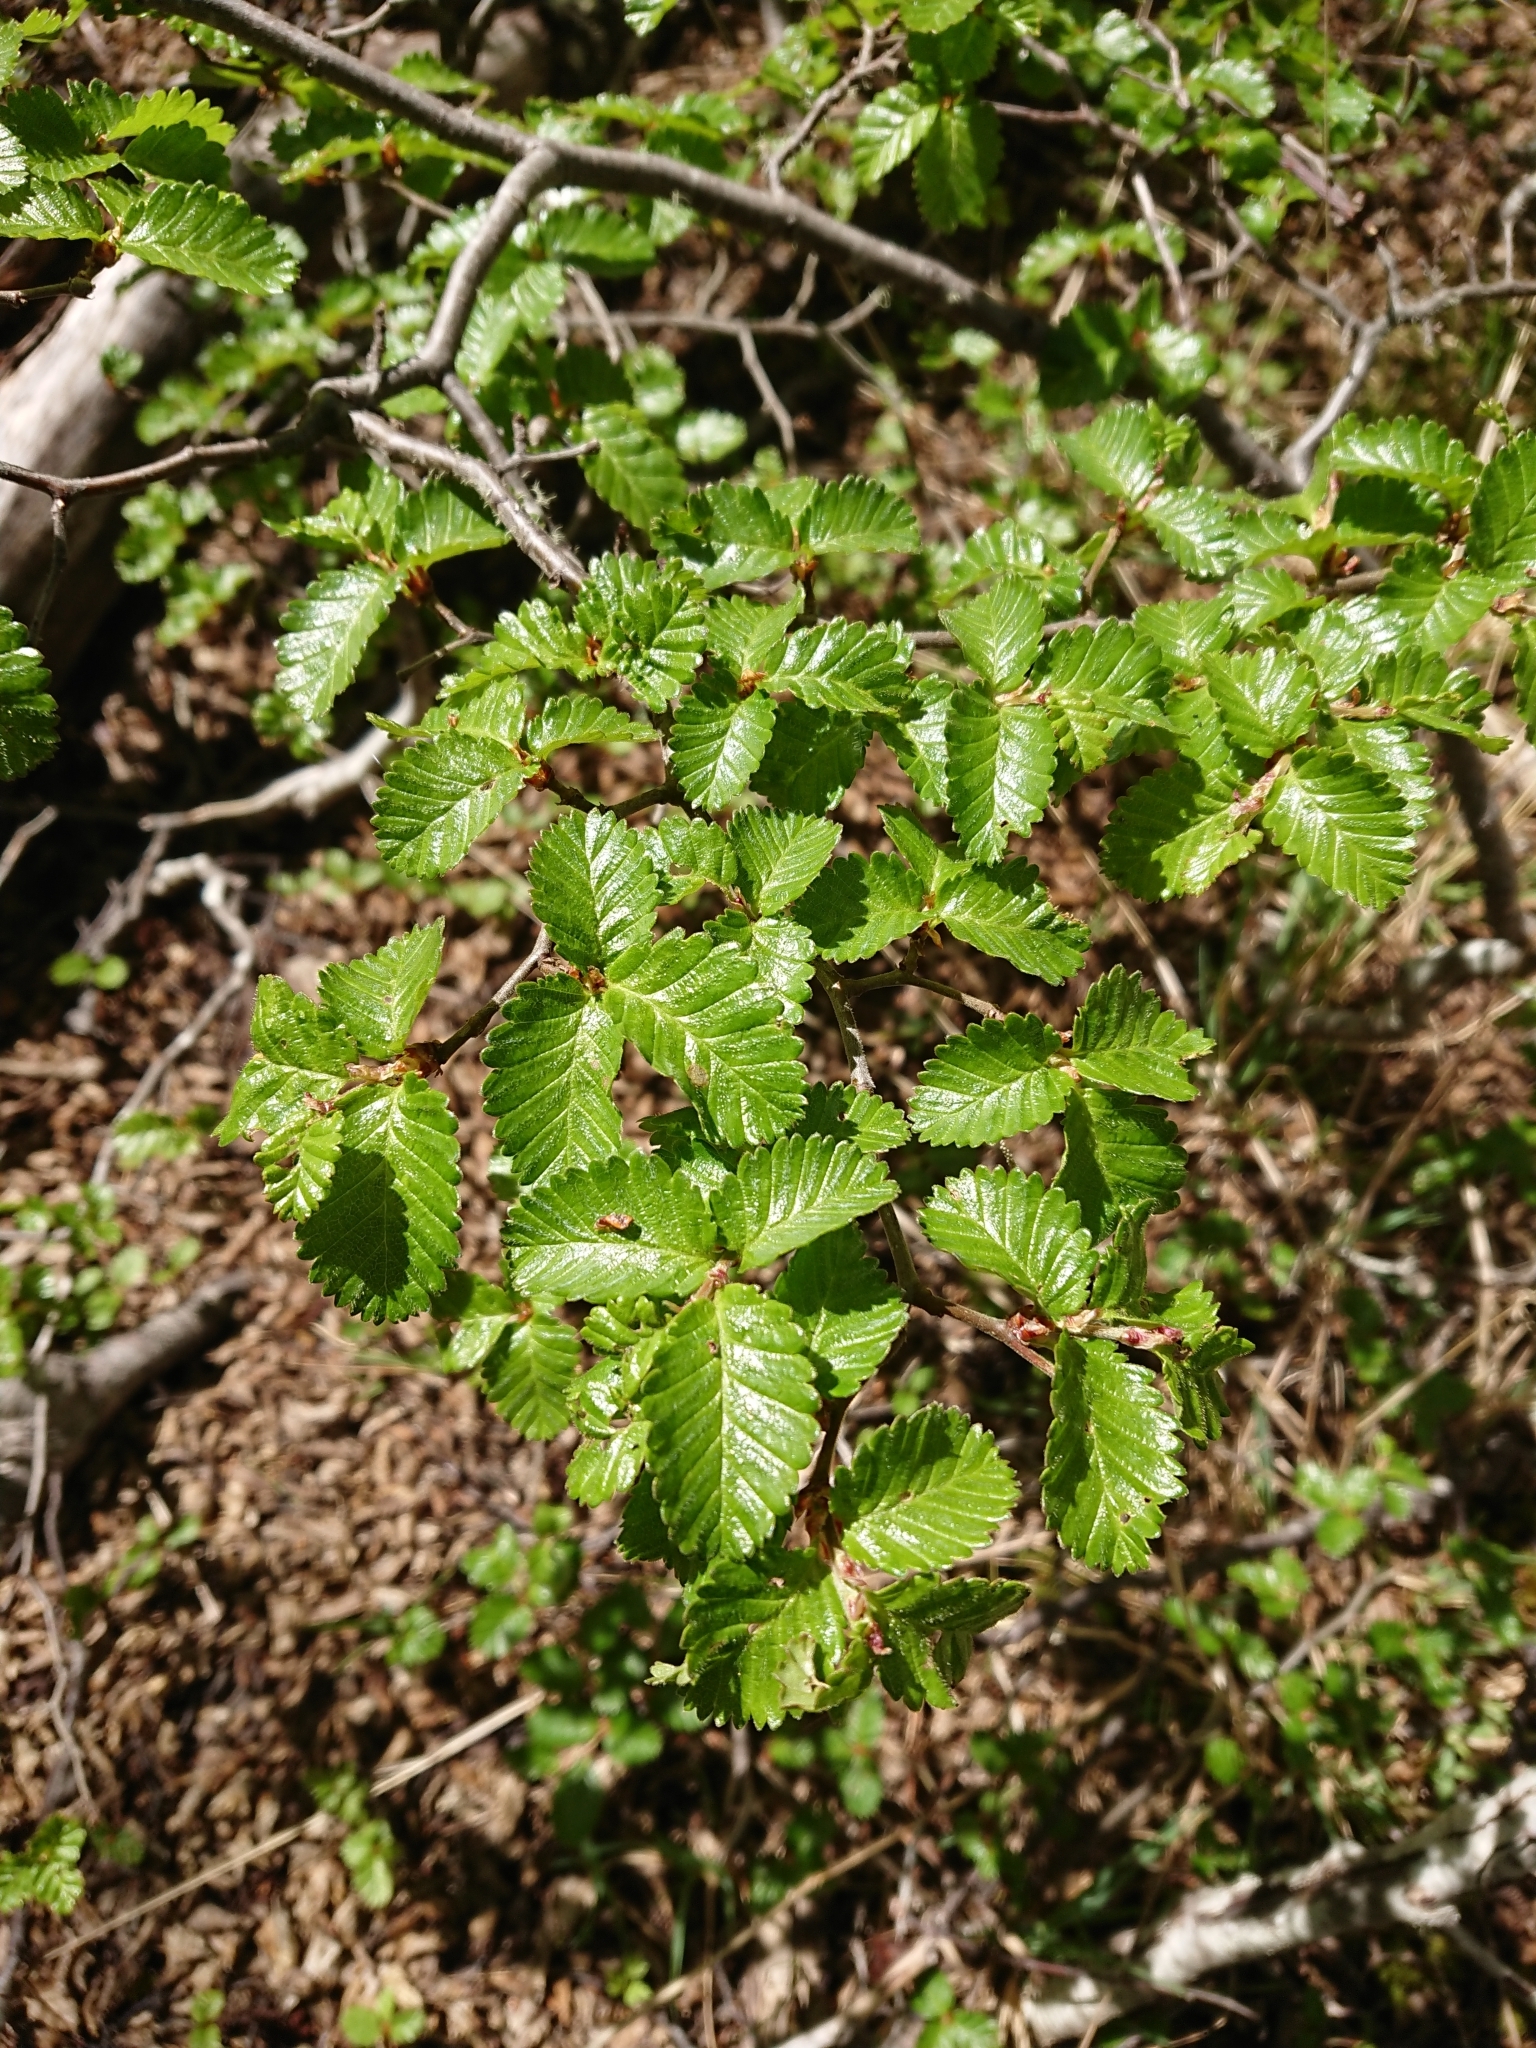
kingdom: Plantae
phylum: Tracheophyta
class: Magnoliopsida
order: Fagales
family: Nothofagaceae
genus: Nothofagus
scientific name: Nothofagus pumilio
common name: Lenga beech
